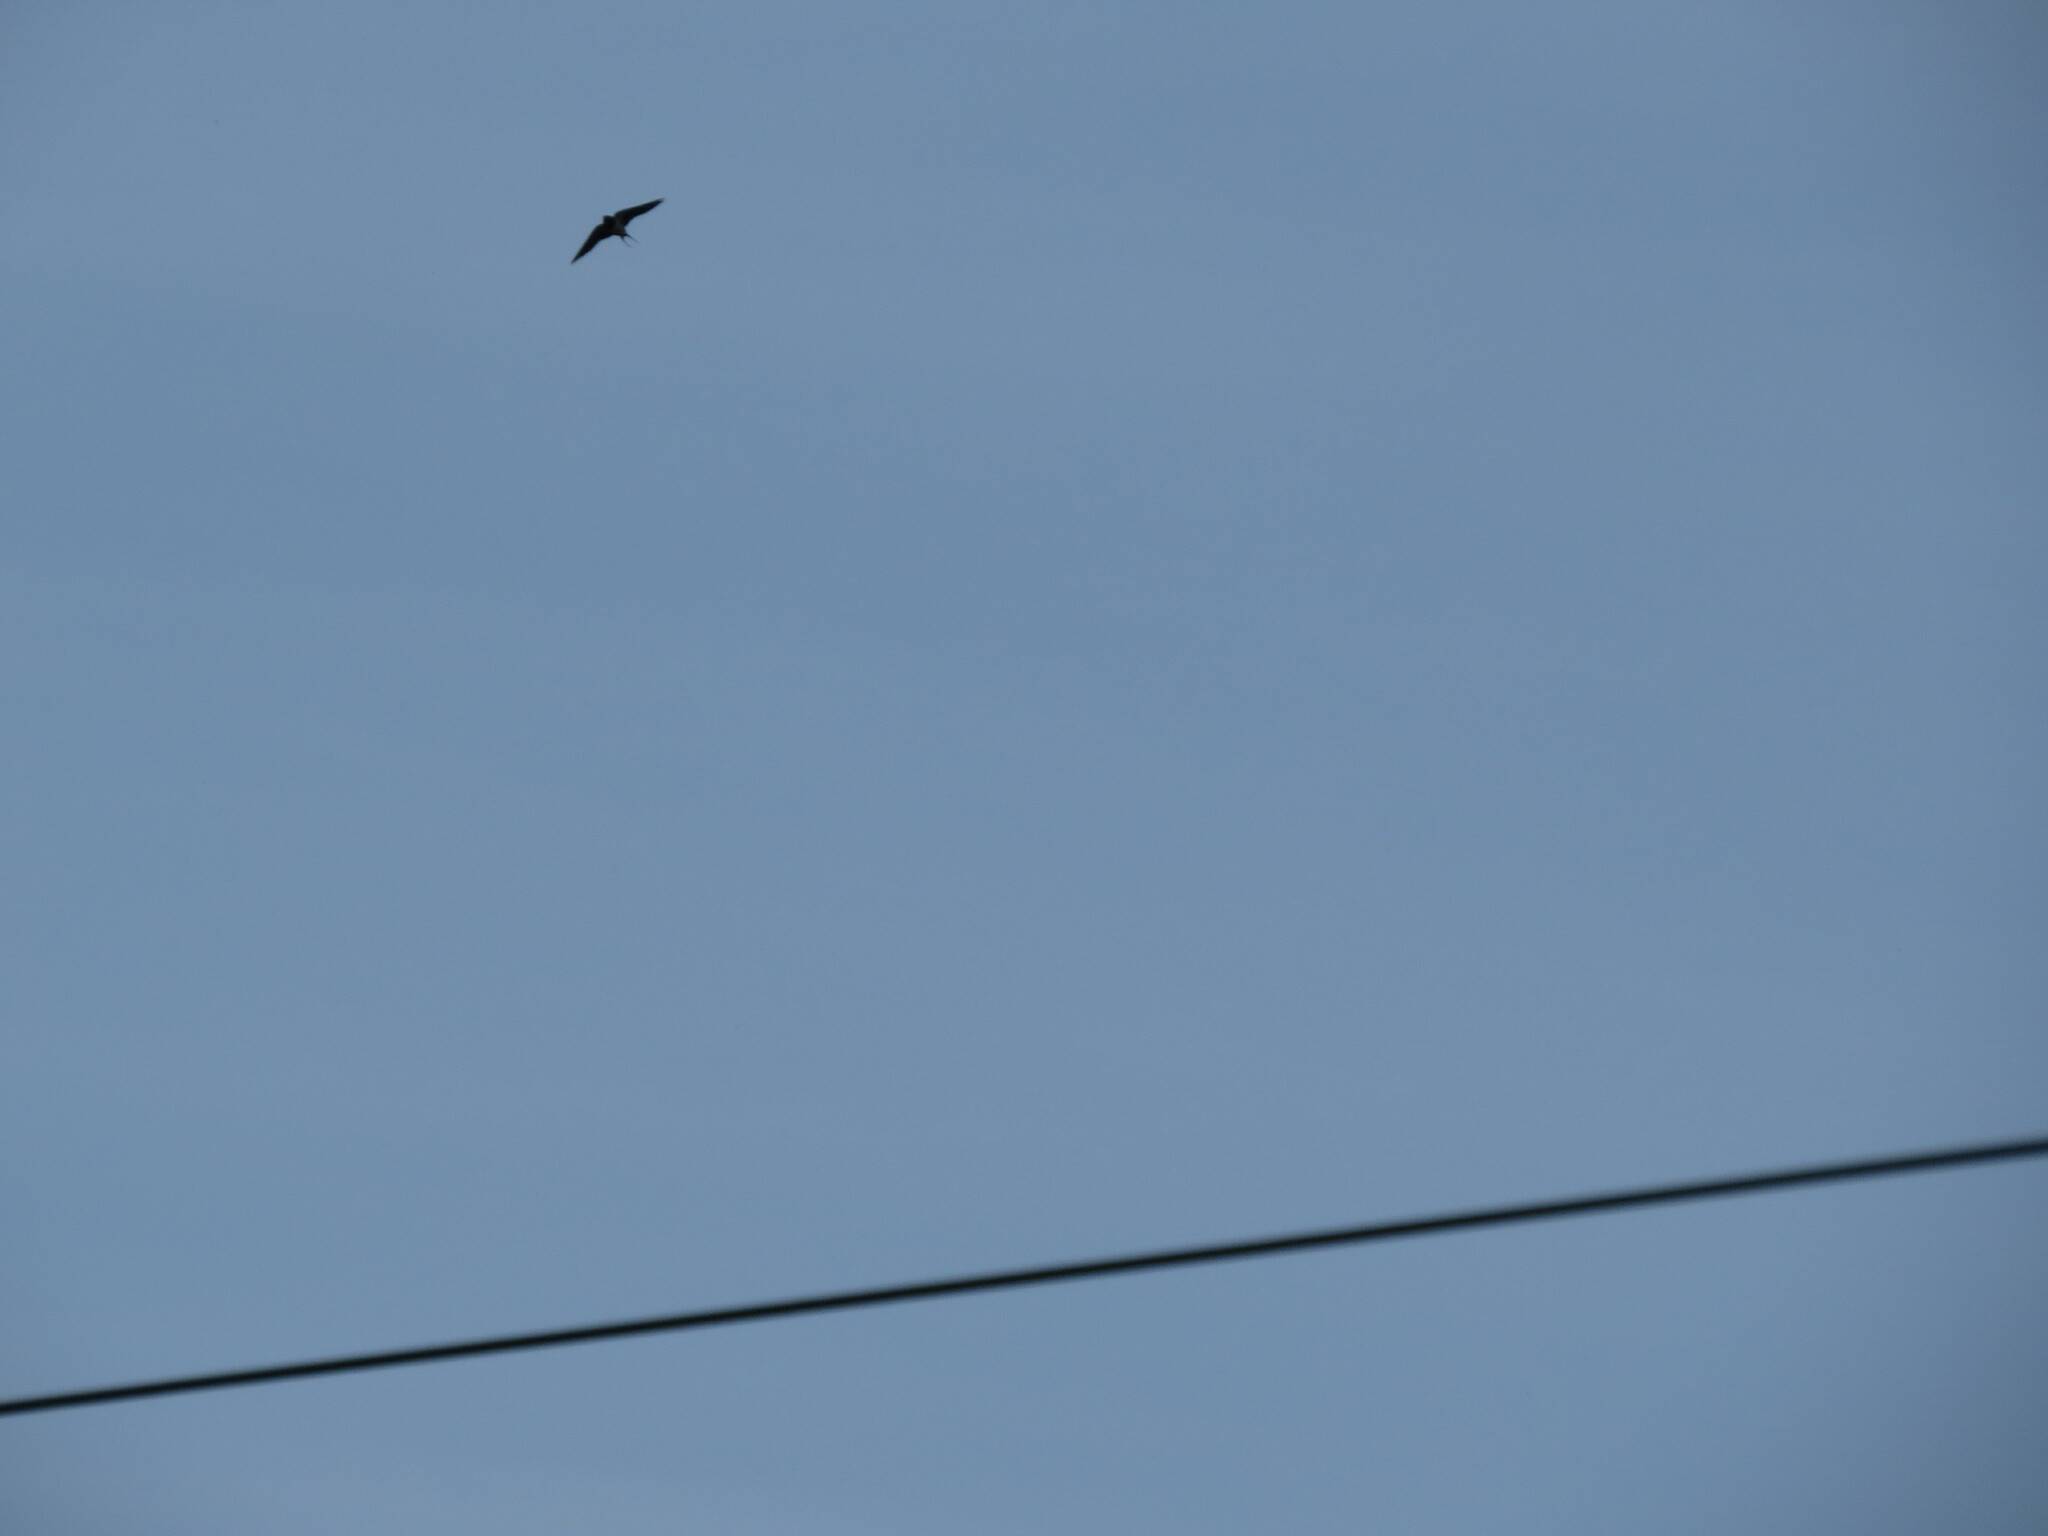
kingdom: Animalia
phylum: Chordata
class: Aves
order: Passeriformes
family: Hirundinidae
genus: Hirundo
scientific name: Hirundo rustica
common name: Barn swallow
